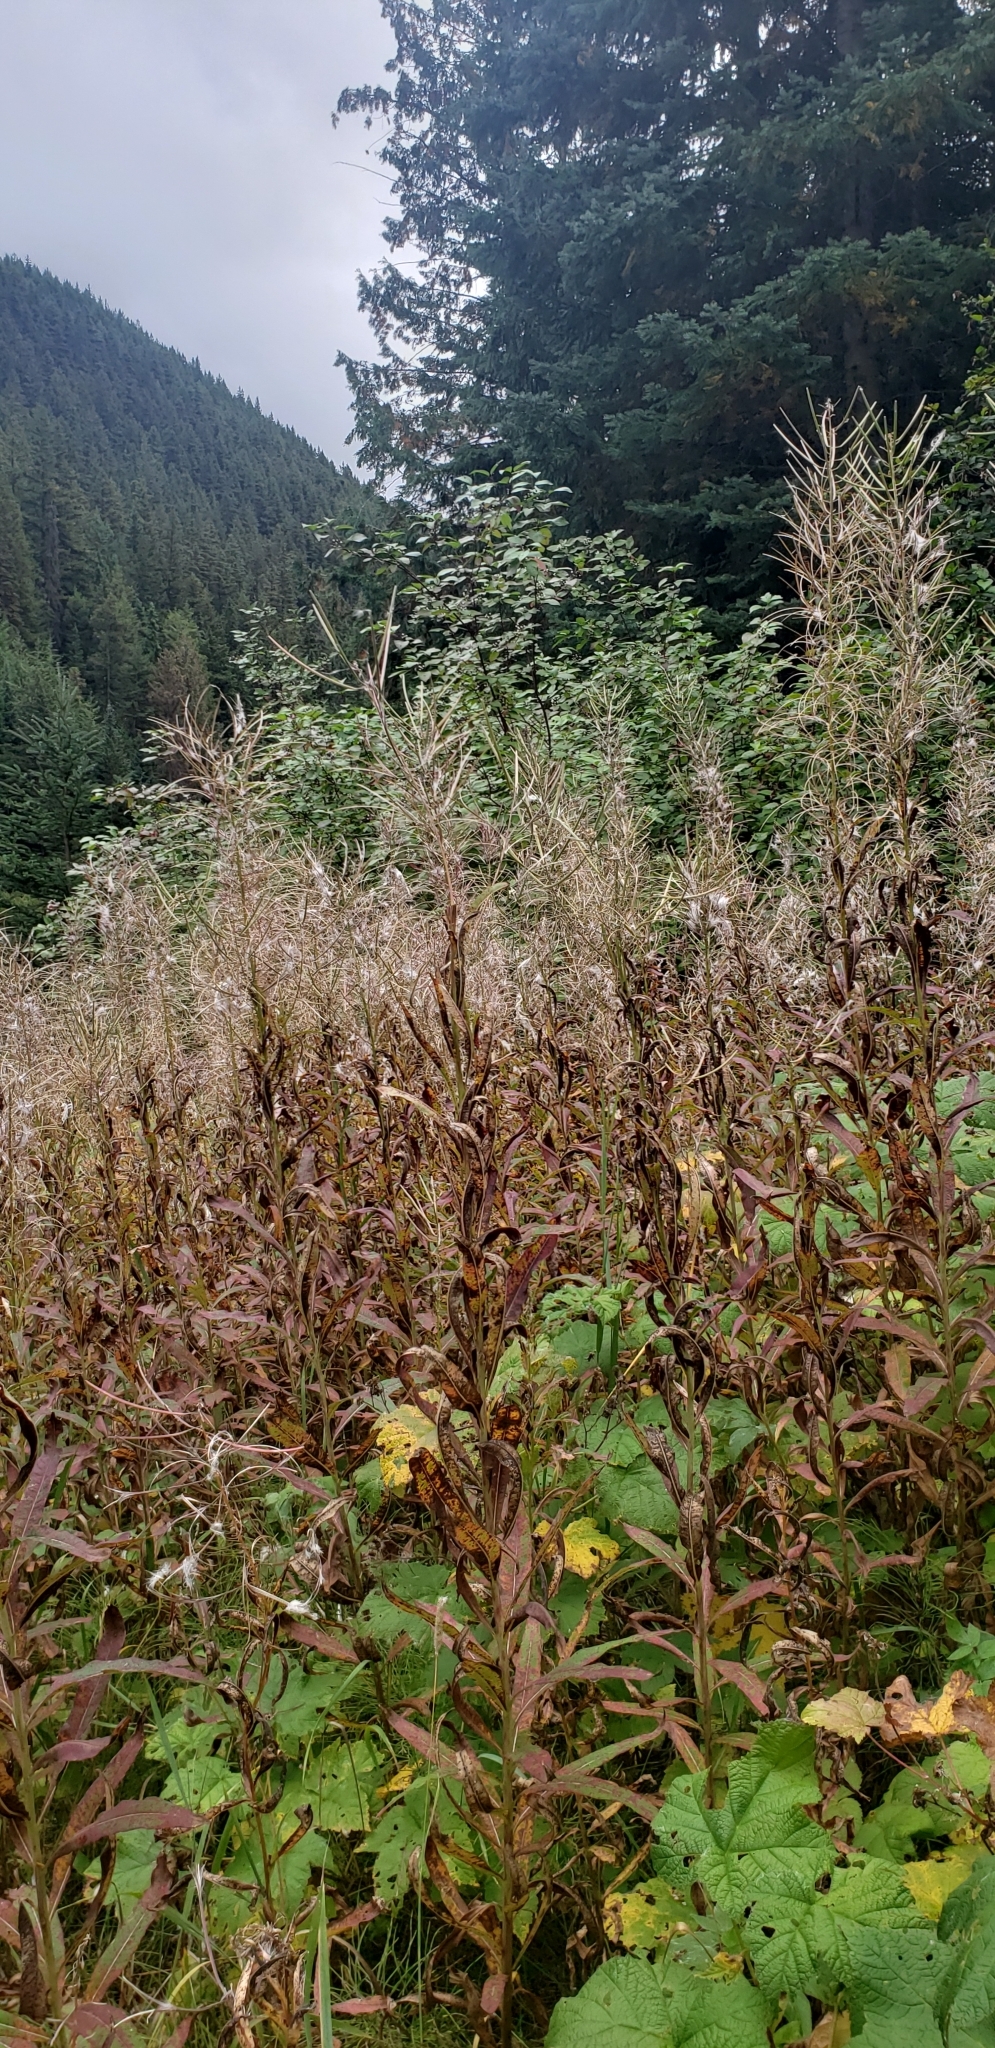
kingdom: Plantae
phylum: Tracheophyta
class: Magnoliopsida
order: Myrtales
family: Onagraceae
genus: Chamaenerion
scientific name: Chamaenerion angustifolium
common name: Fireweed
